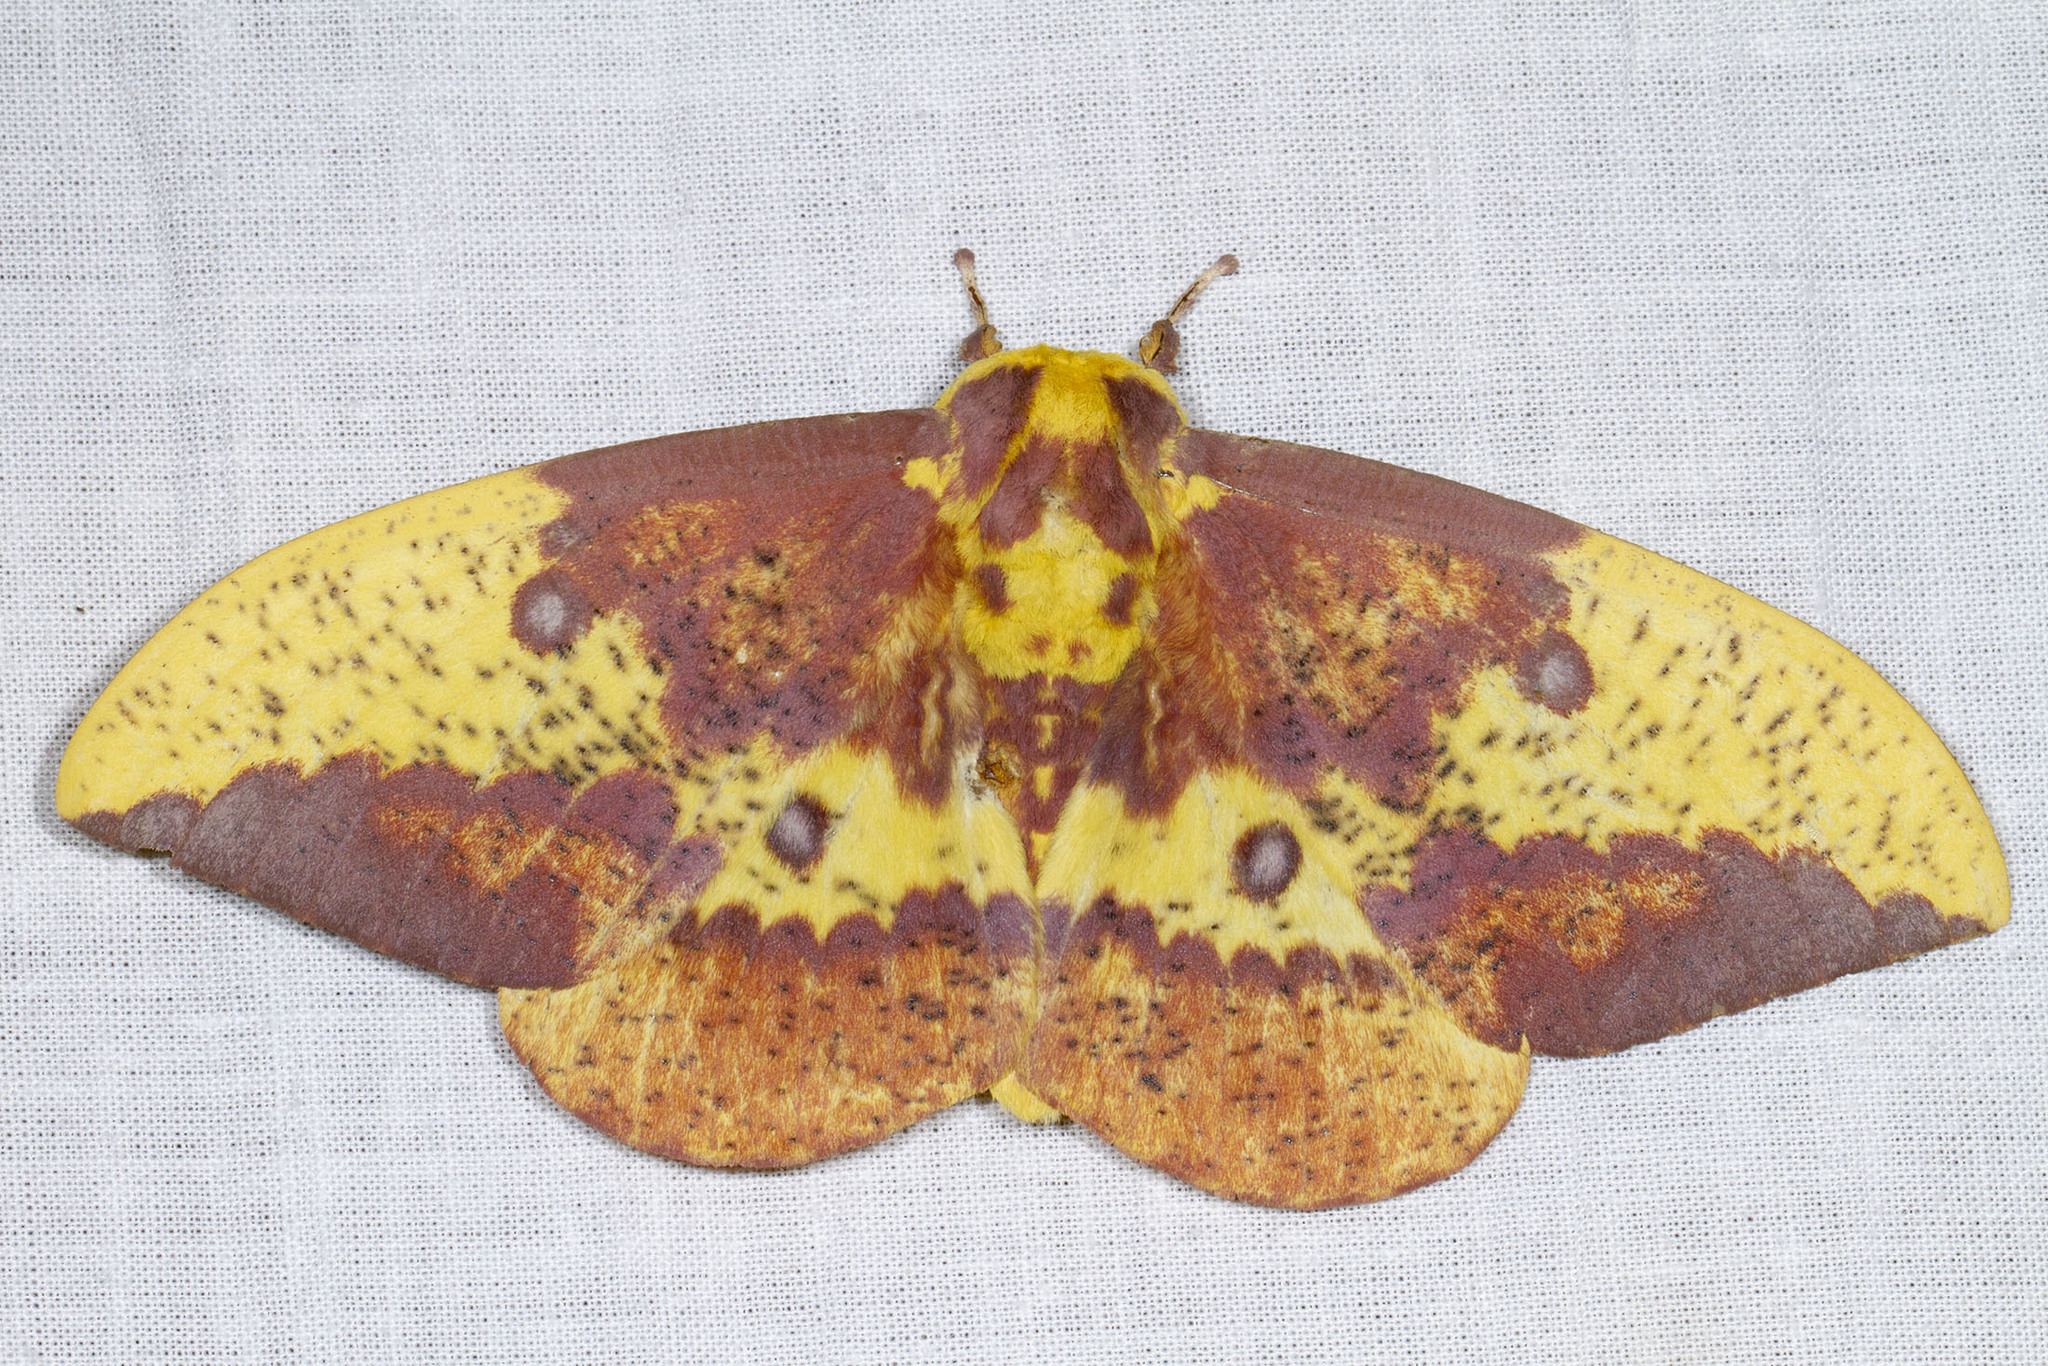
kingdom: Animalia
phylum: Arthropoda
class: Insecta
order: Lepidoptera
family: Saturniidae
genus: Eacles
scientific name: Eacles imperialis
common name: Imperial moth
